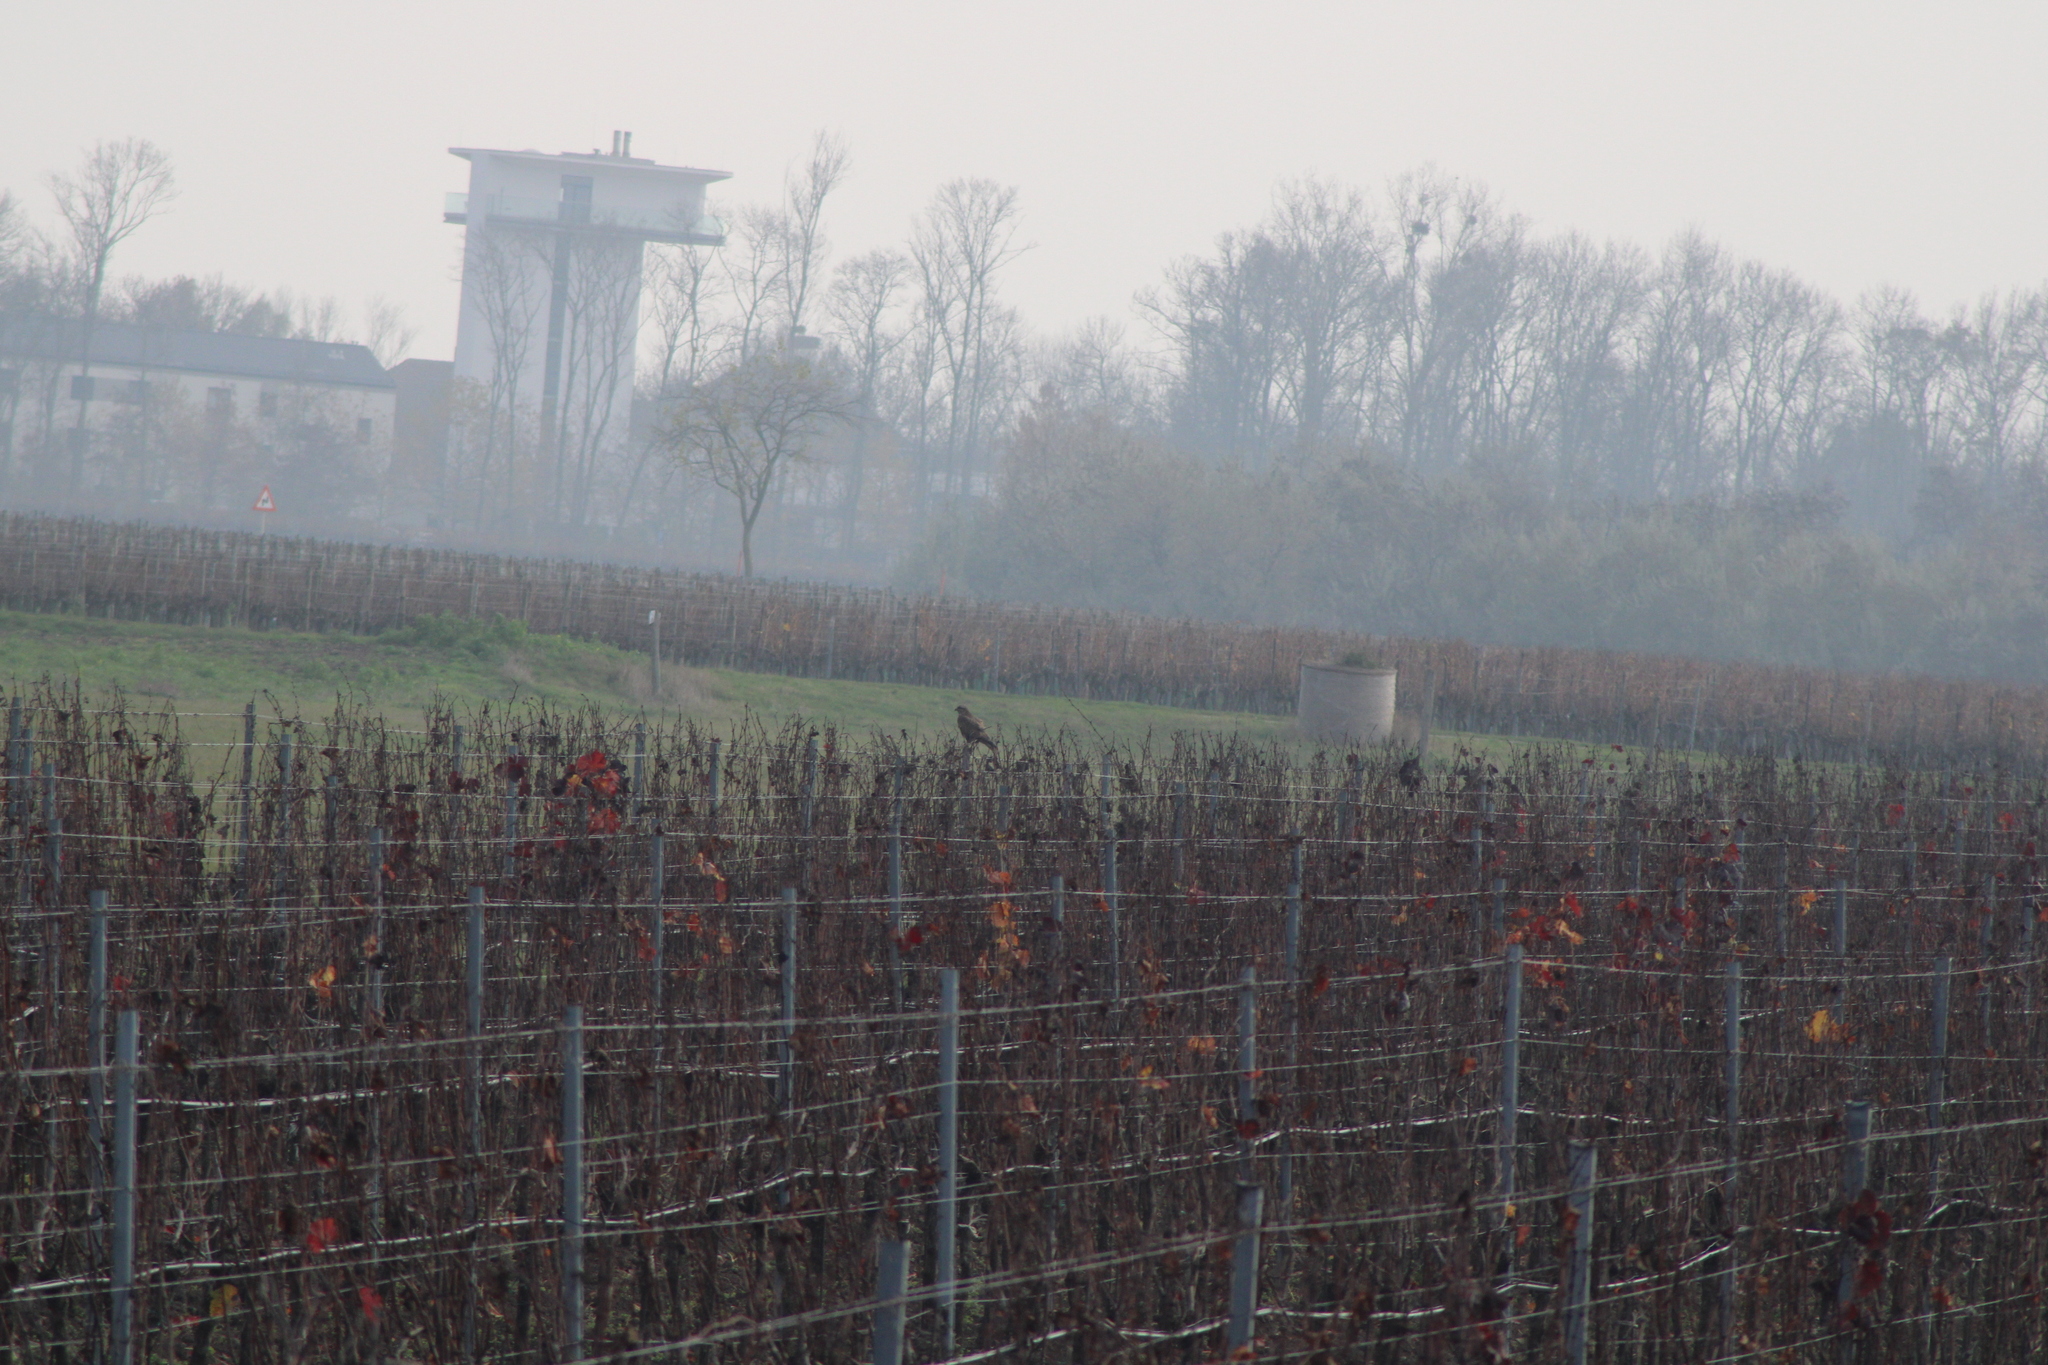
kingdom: Animalia
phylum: Chordata
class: Aves
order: Accipitriformes
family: Accipitridae
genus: Buteo
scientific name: Buteo buteo
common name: Common buzzard
